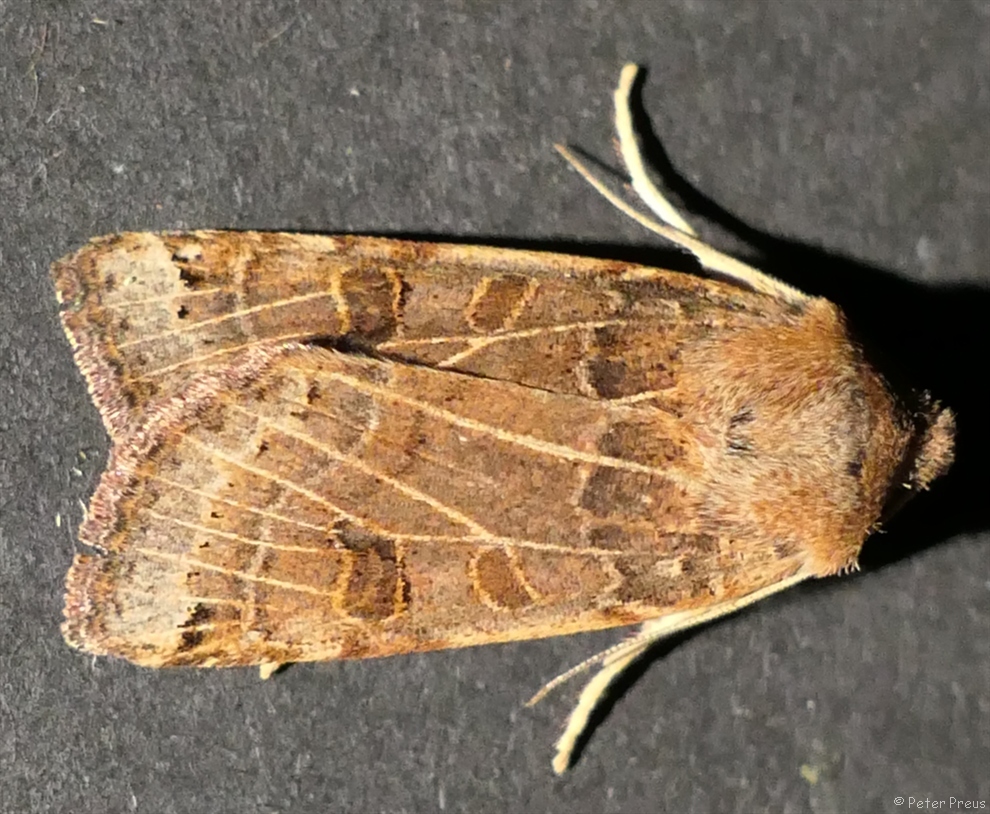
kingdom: Animalia
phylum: Arthropoda
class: Insecta
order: Lepidoptera
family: Noctuidae
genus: Agrochola
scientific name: Agrochola lunosa
